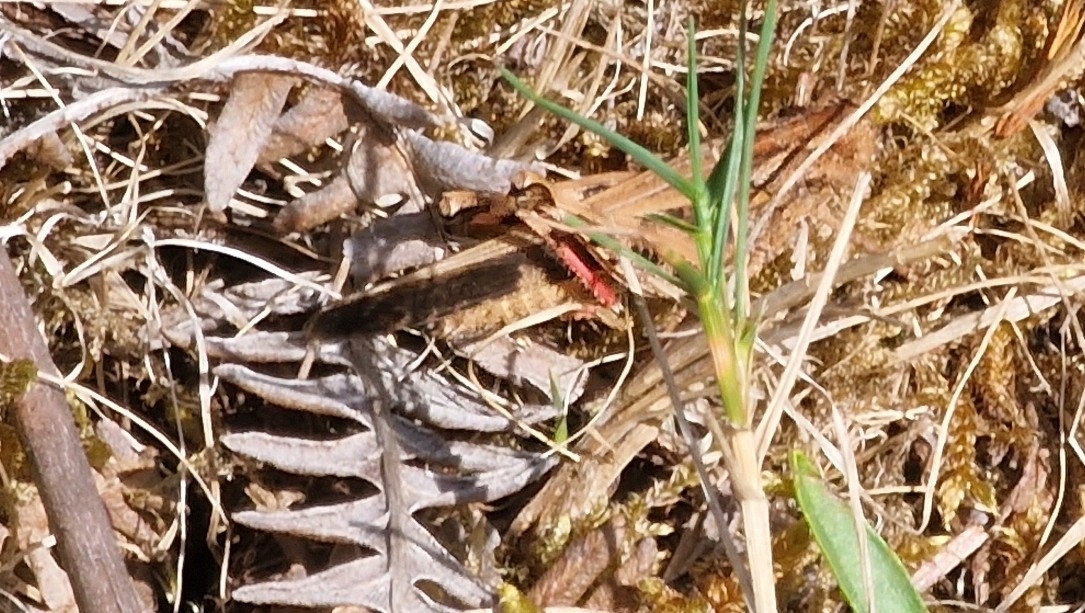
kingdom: Animalia
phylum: Arthropoda
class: Insecta
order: Orthoptera
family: Acrididae
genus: Aiolopus
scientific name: Aiolopus strepens
